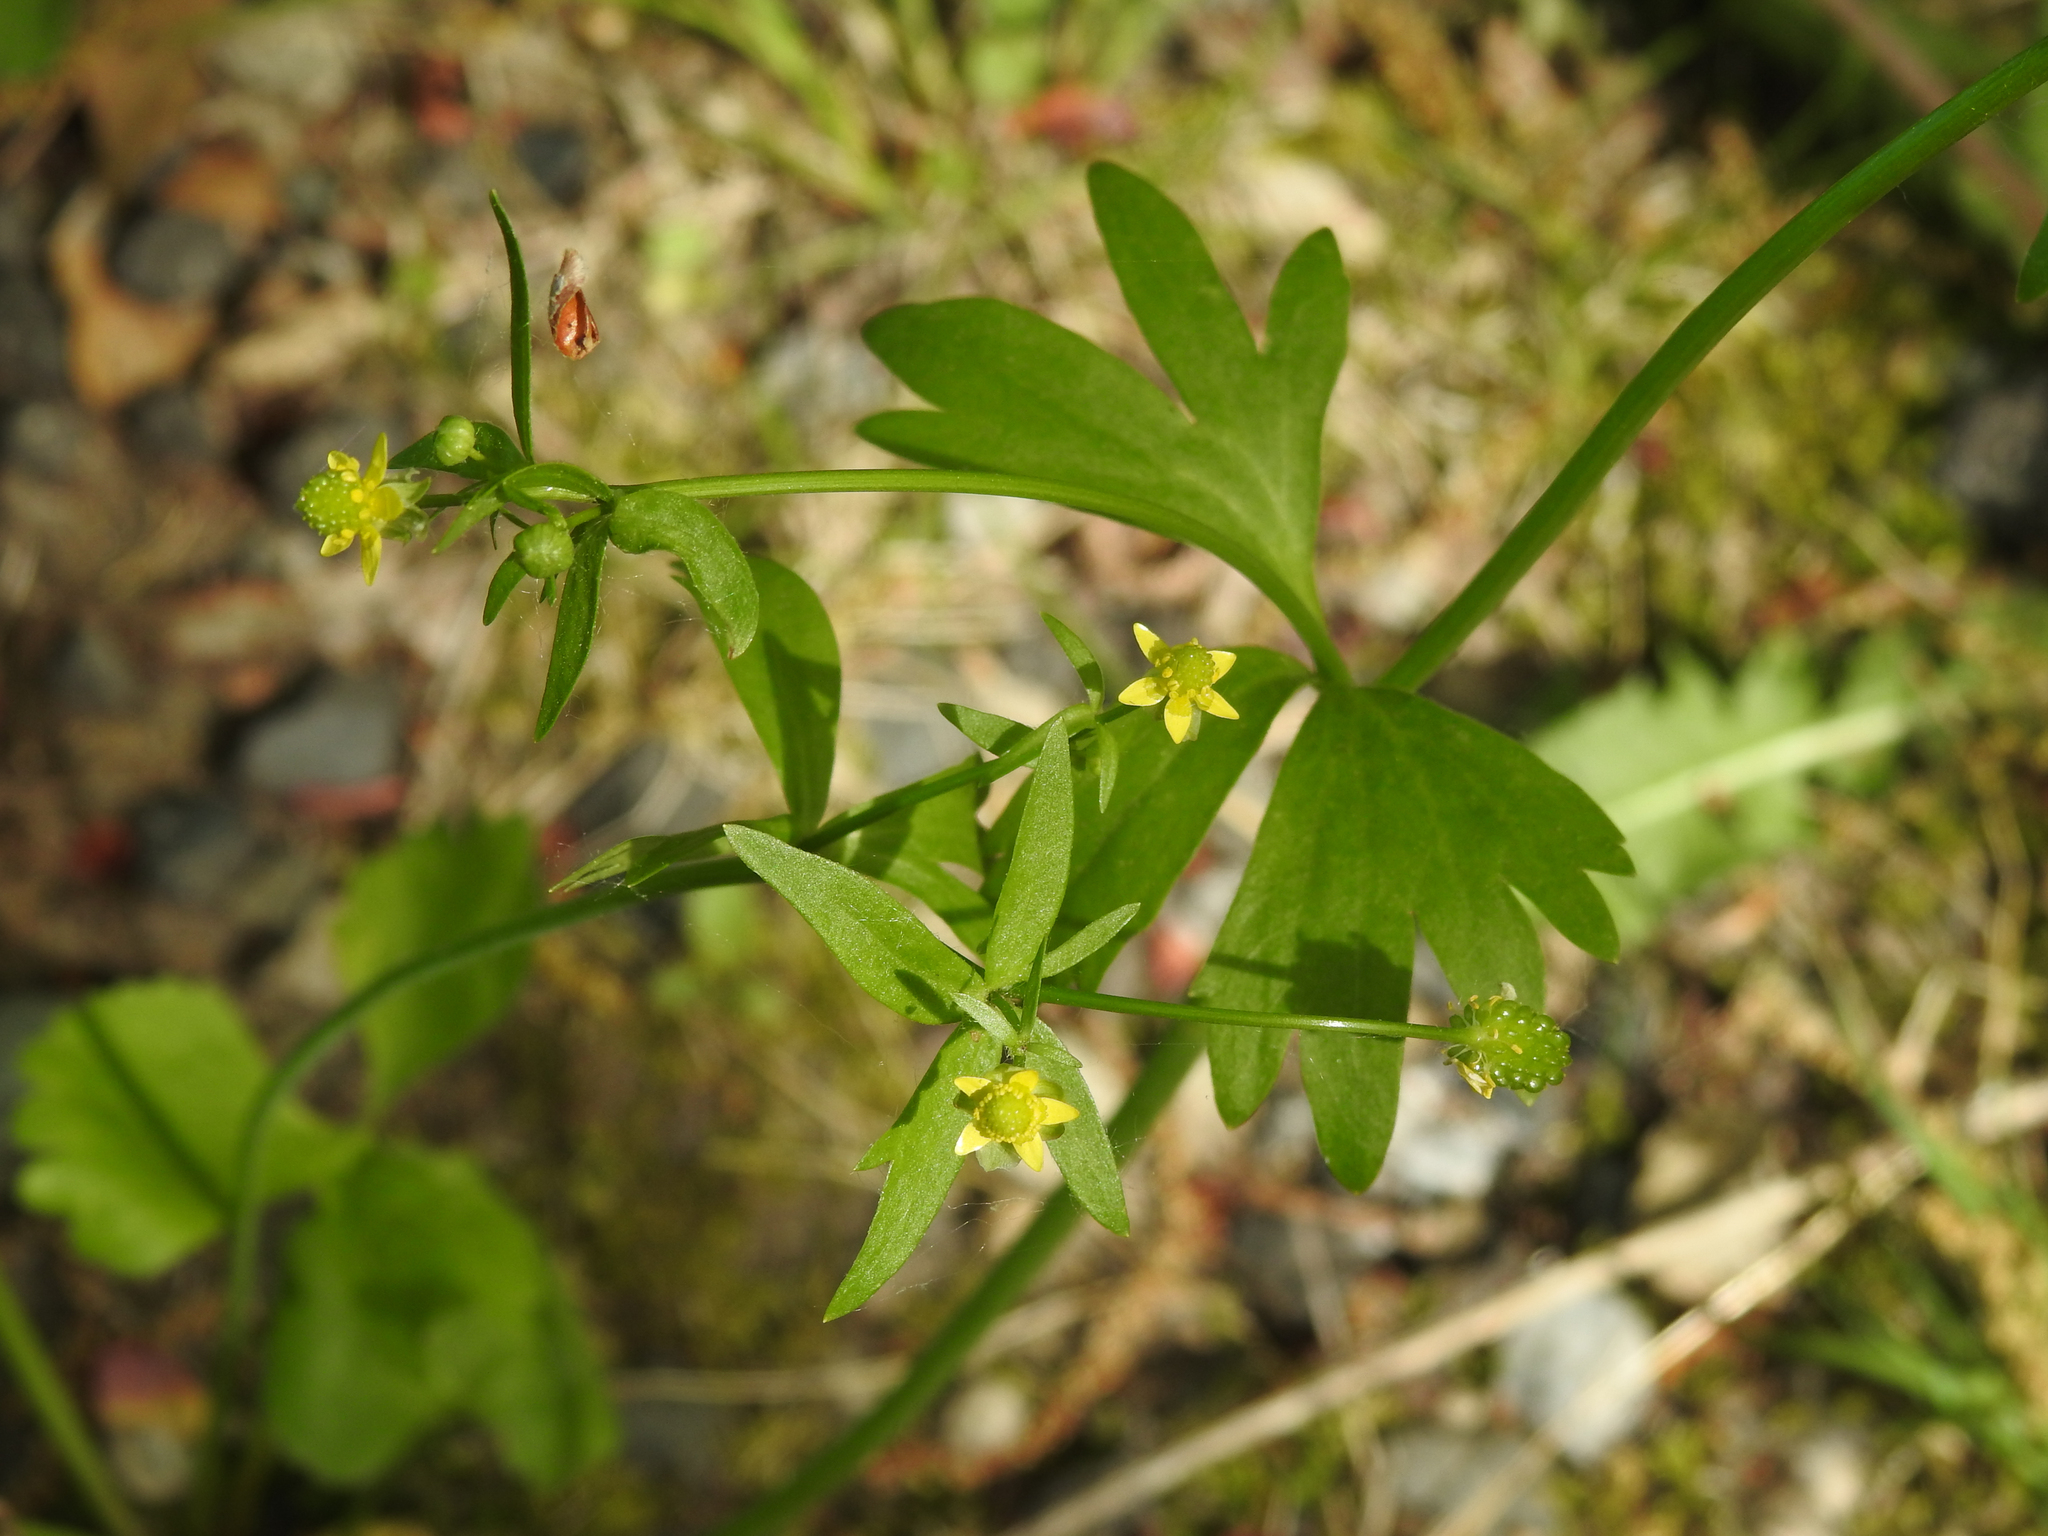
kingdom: Plantae
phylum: Tracheophyta
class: Magnoliopsida
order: Ranunculales
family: Ranunculaceae
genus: Ranunculus
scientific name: Ranunculus abortivus
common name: Early wood buttercup
